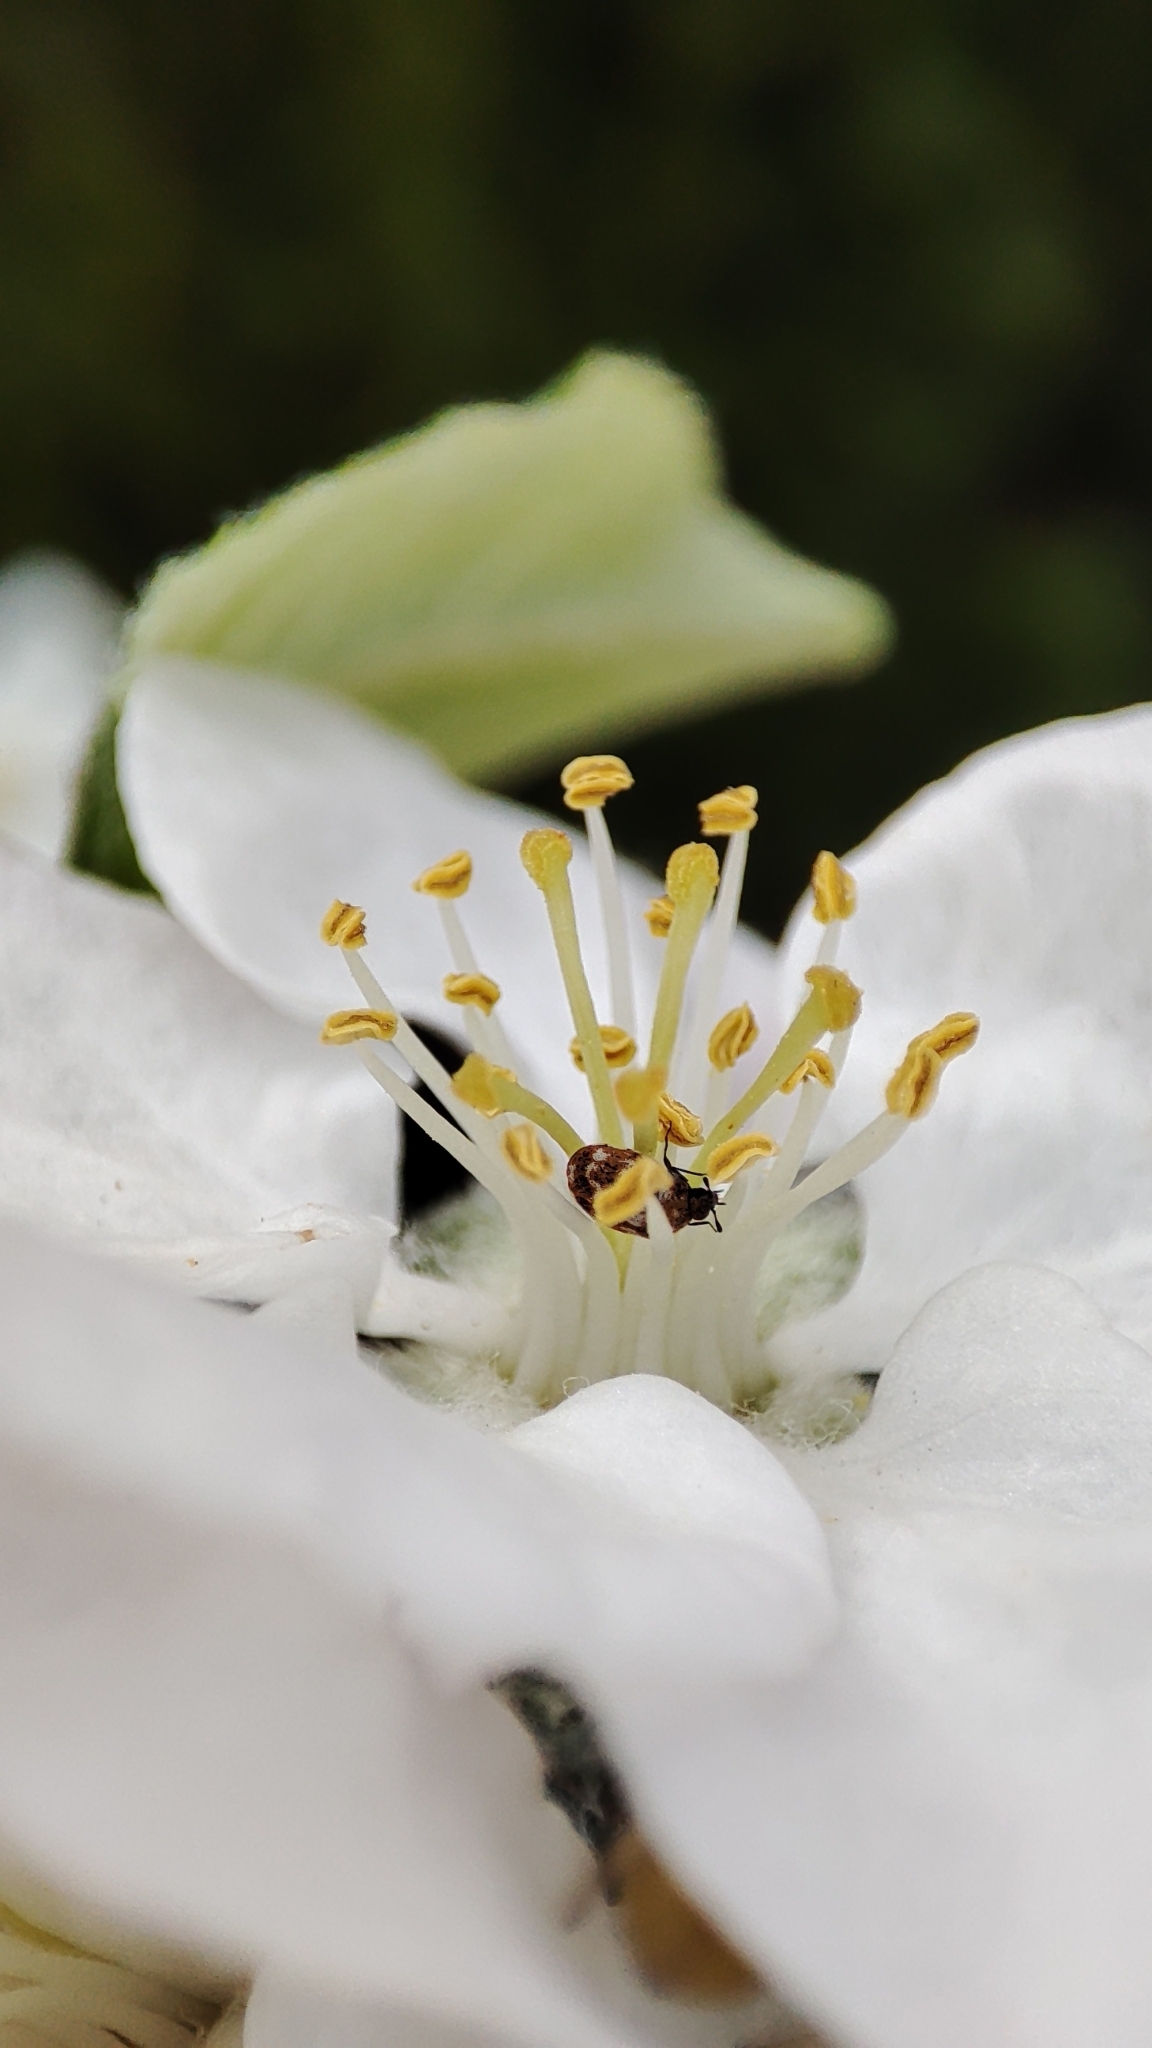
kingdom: Animalia
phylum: Arthropoda
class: Insecta
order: Coleoptera
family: Dermestidae
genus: Anthrenus
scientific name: Anthrenus verbasci
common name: Varied carpet beetle
